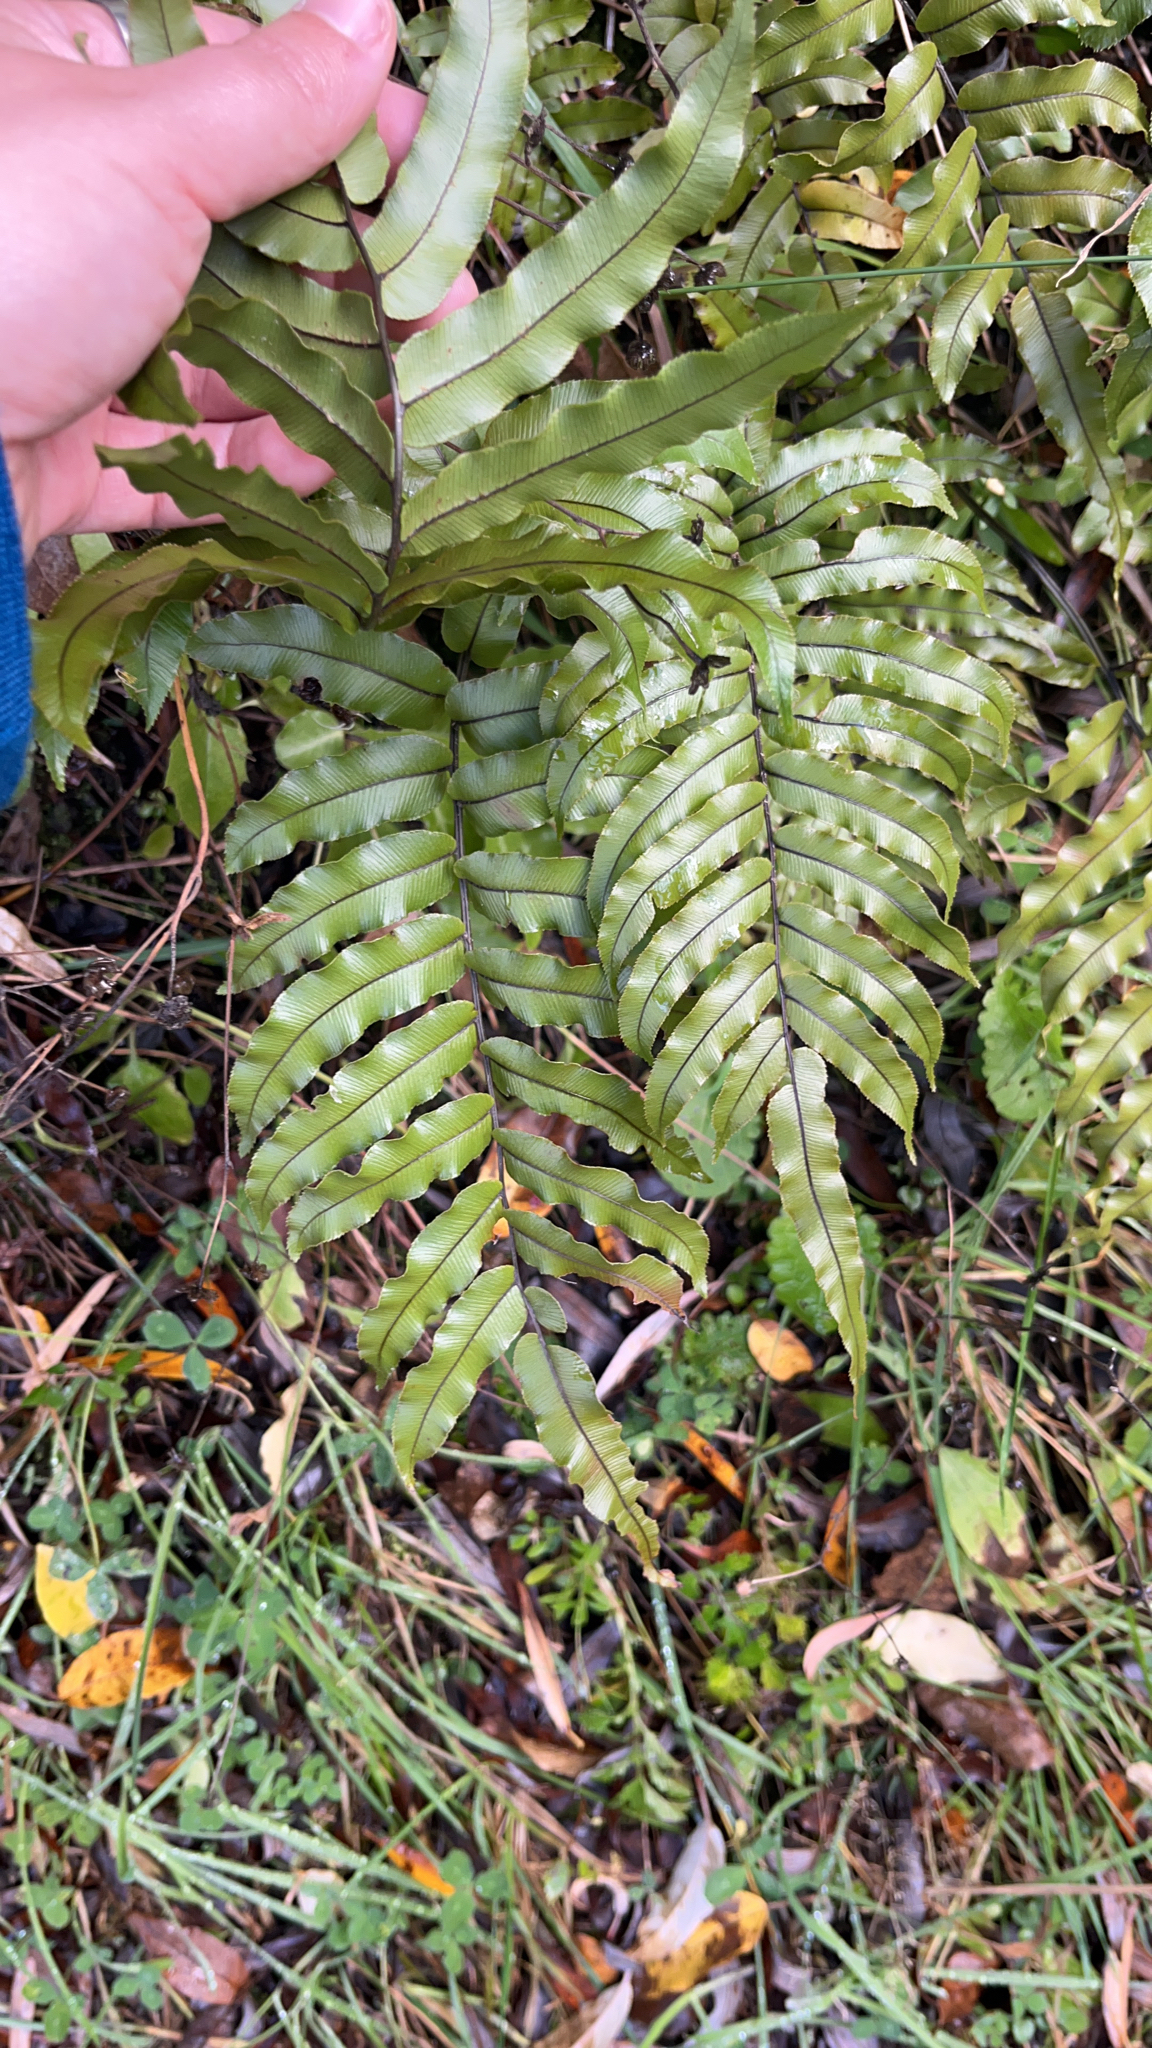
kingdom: Plantae
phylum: Tracheophyta
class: Polypodiopsida
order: Polypodiales
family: Blechnaceae
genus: Parablechnum
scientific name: Parablechnum montanum
